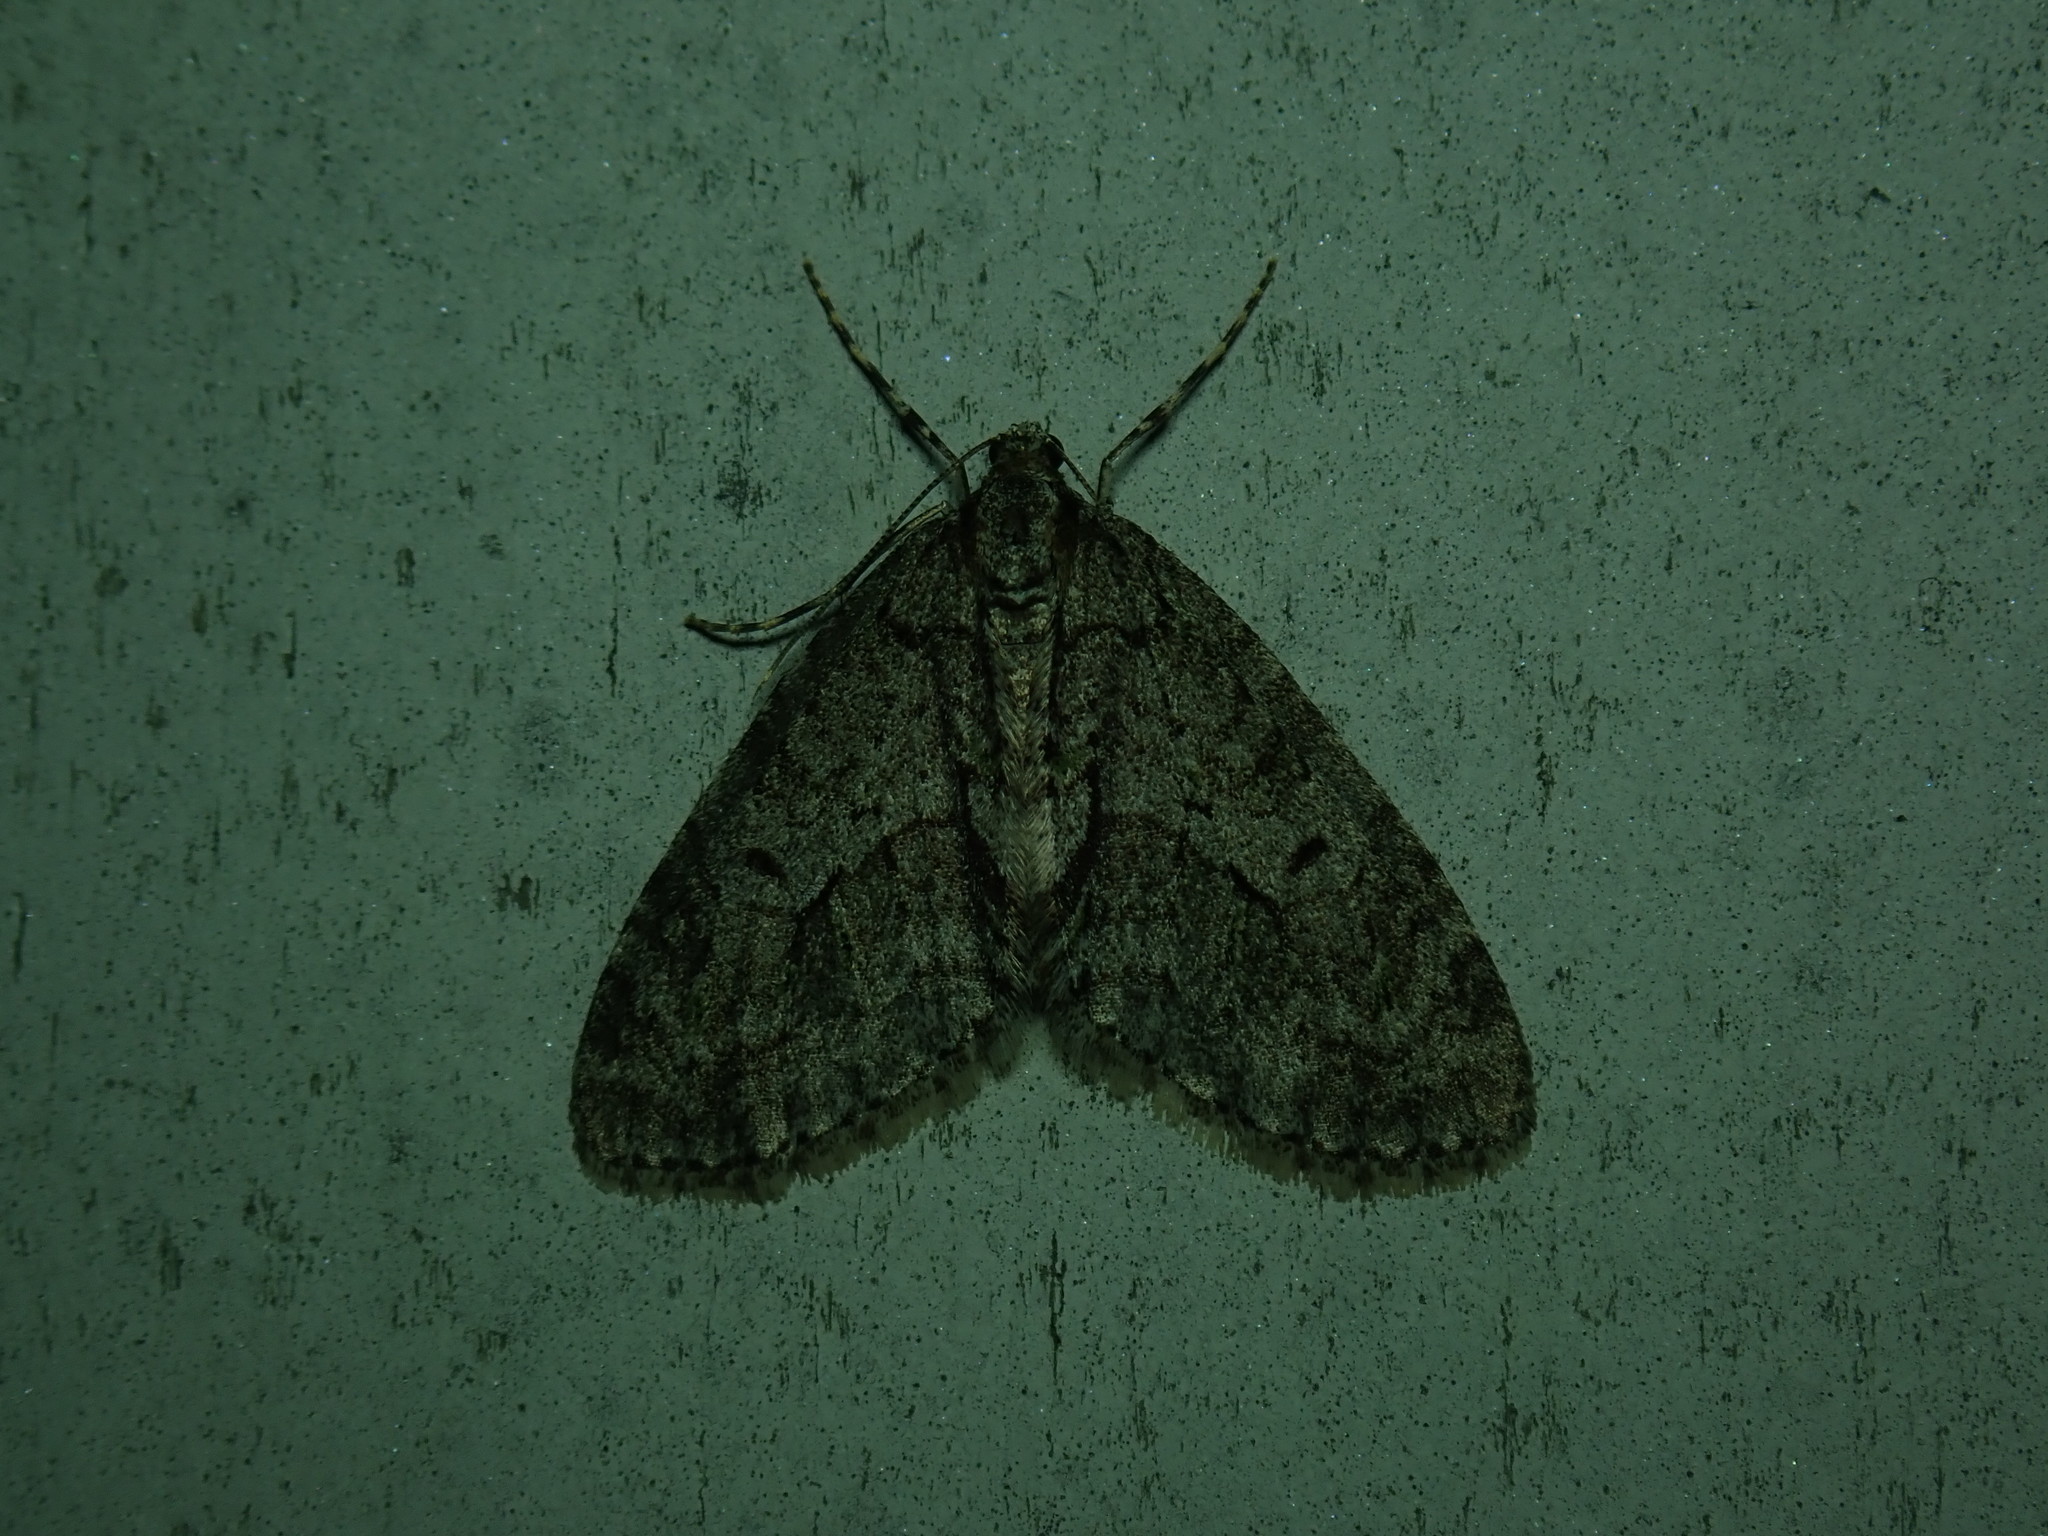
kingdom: Animalia
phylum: Arthropoda
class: Insecta
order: Lepidoptera
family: Geometridae
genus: Cladara
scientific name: Cladara limitaria
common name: Mottled gray carpet
